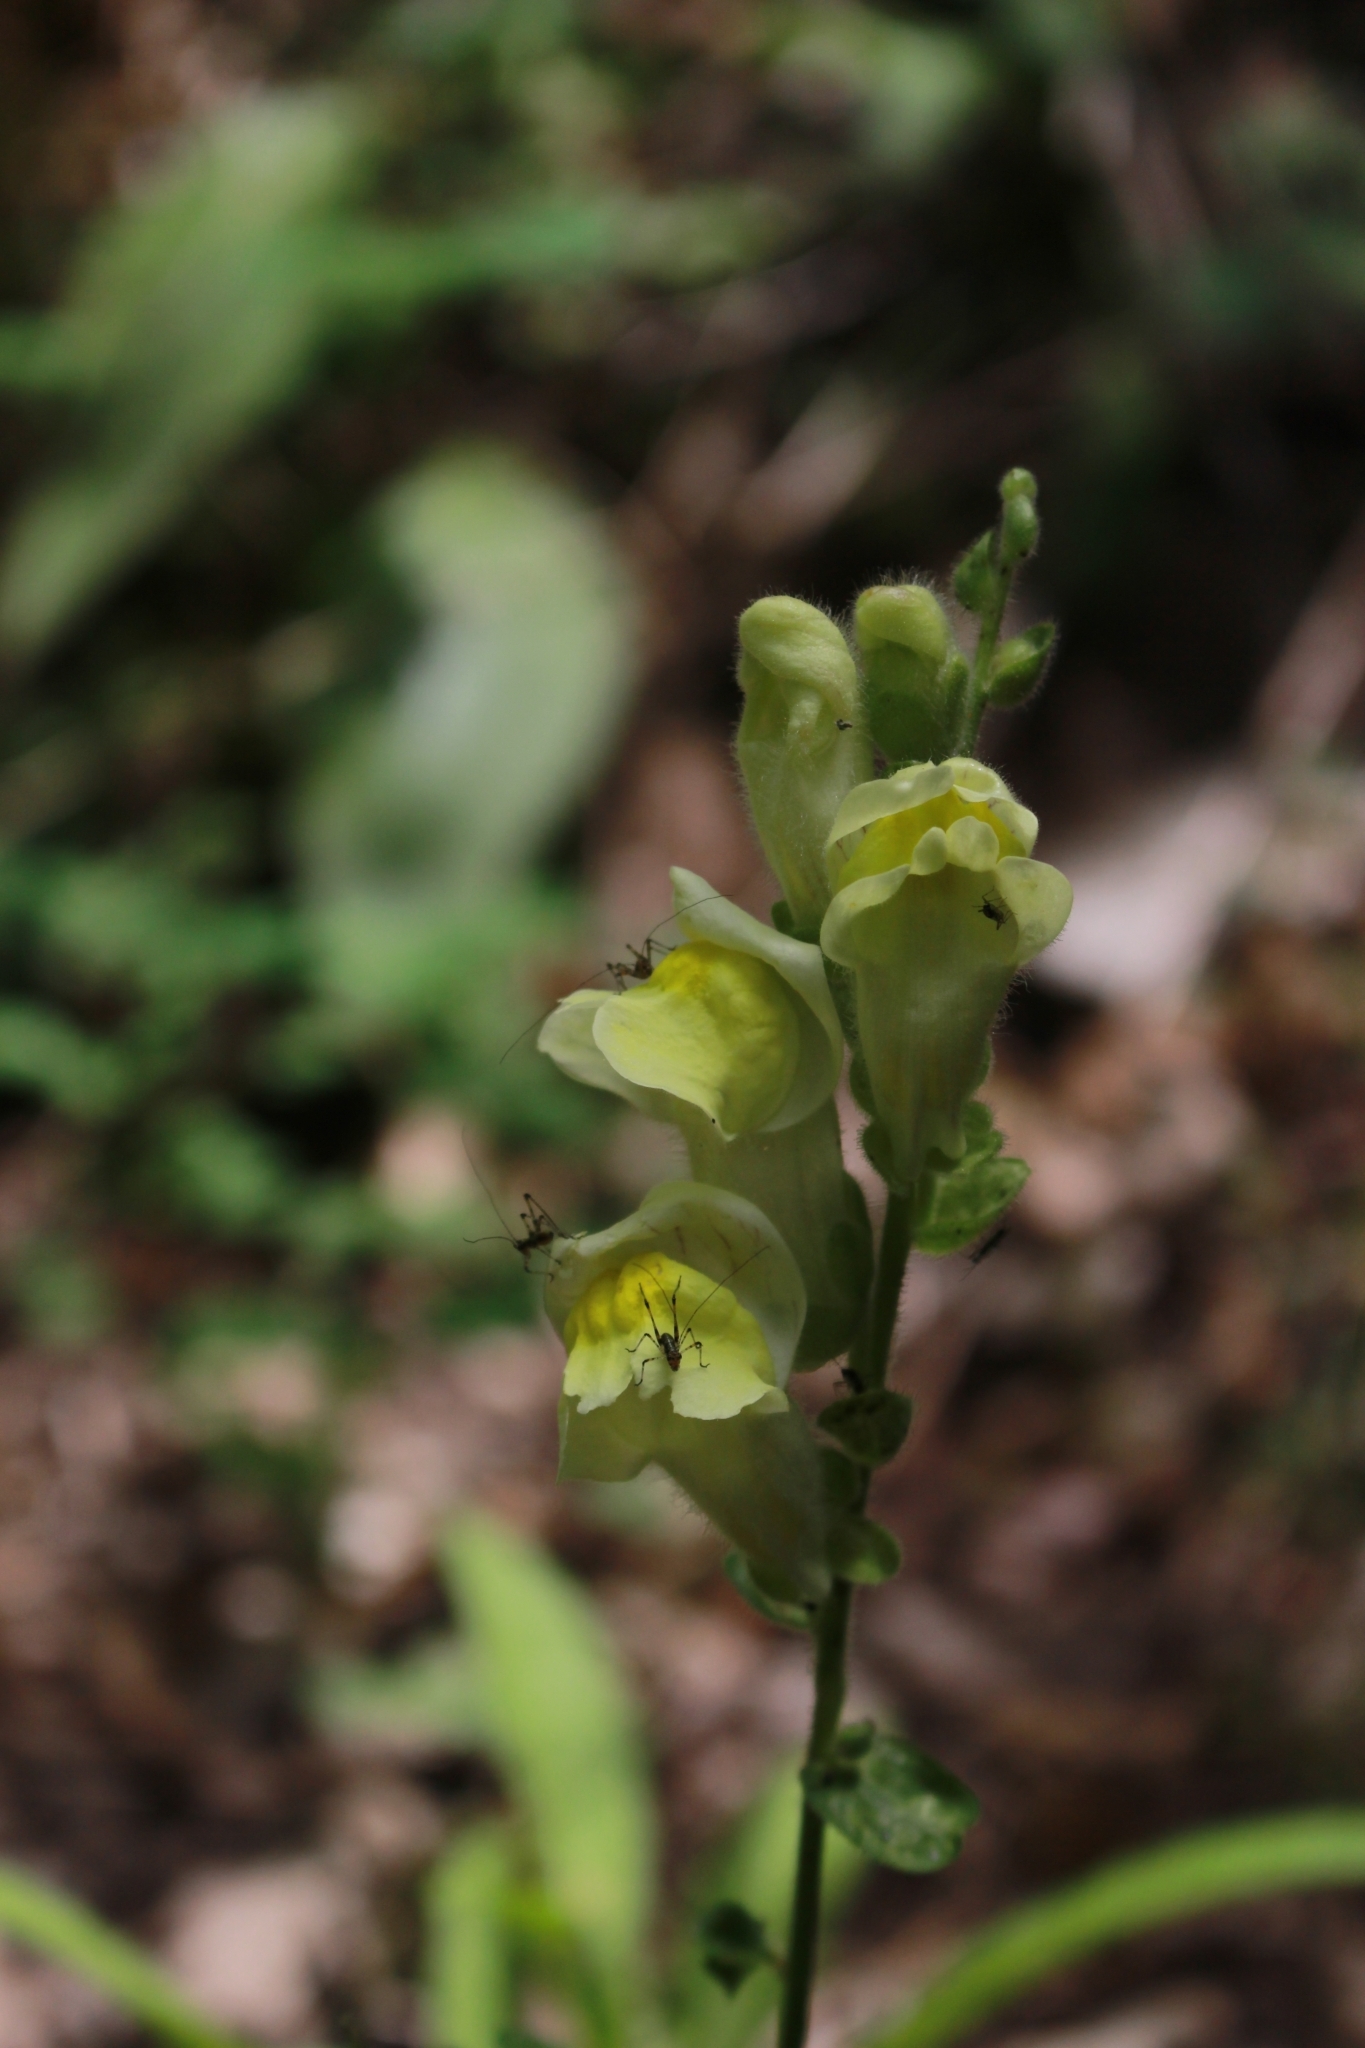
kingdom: Plantae
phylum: Tracheophyta
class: Magnoliopsida
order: Lamiales
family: Plantaginaceae
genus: Antirrhinum
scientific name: Antirrhinum latifolium
